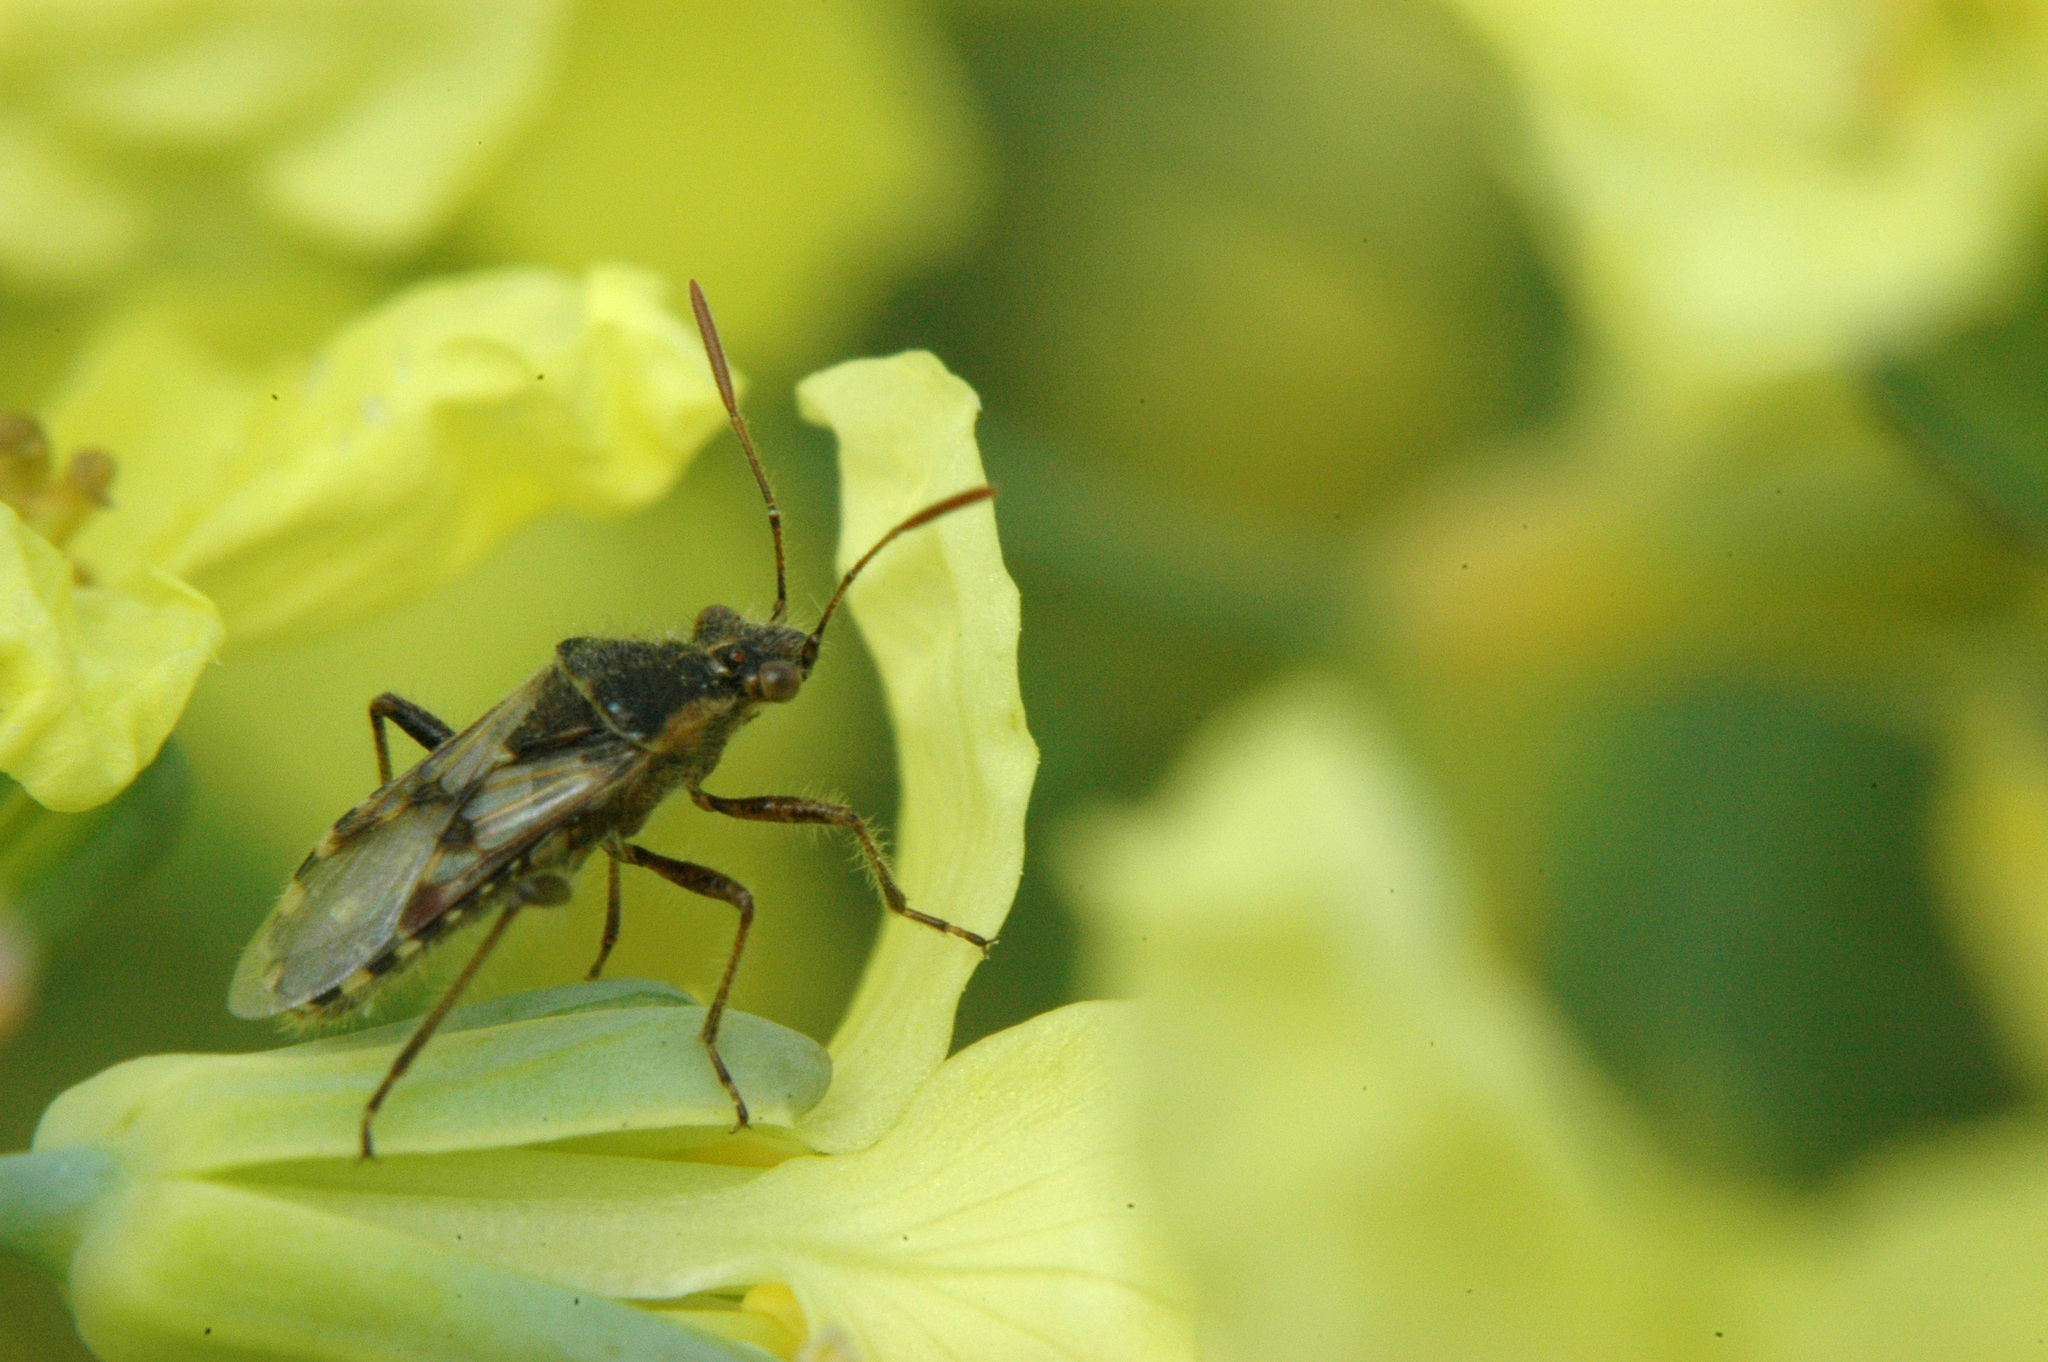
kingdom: Animalia
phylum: Arthropoda
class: Insecta
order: Hemiptera
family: Rhopalidae
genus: Liorhyssus
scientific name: Liorhyssus hyalinus
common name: Scentless plant bug
